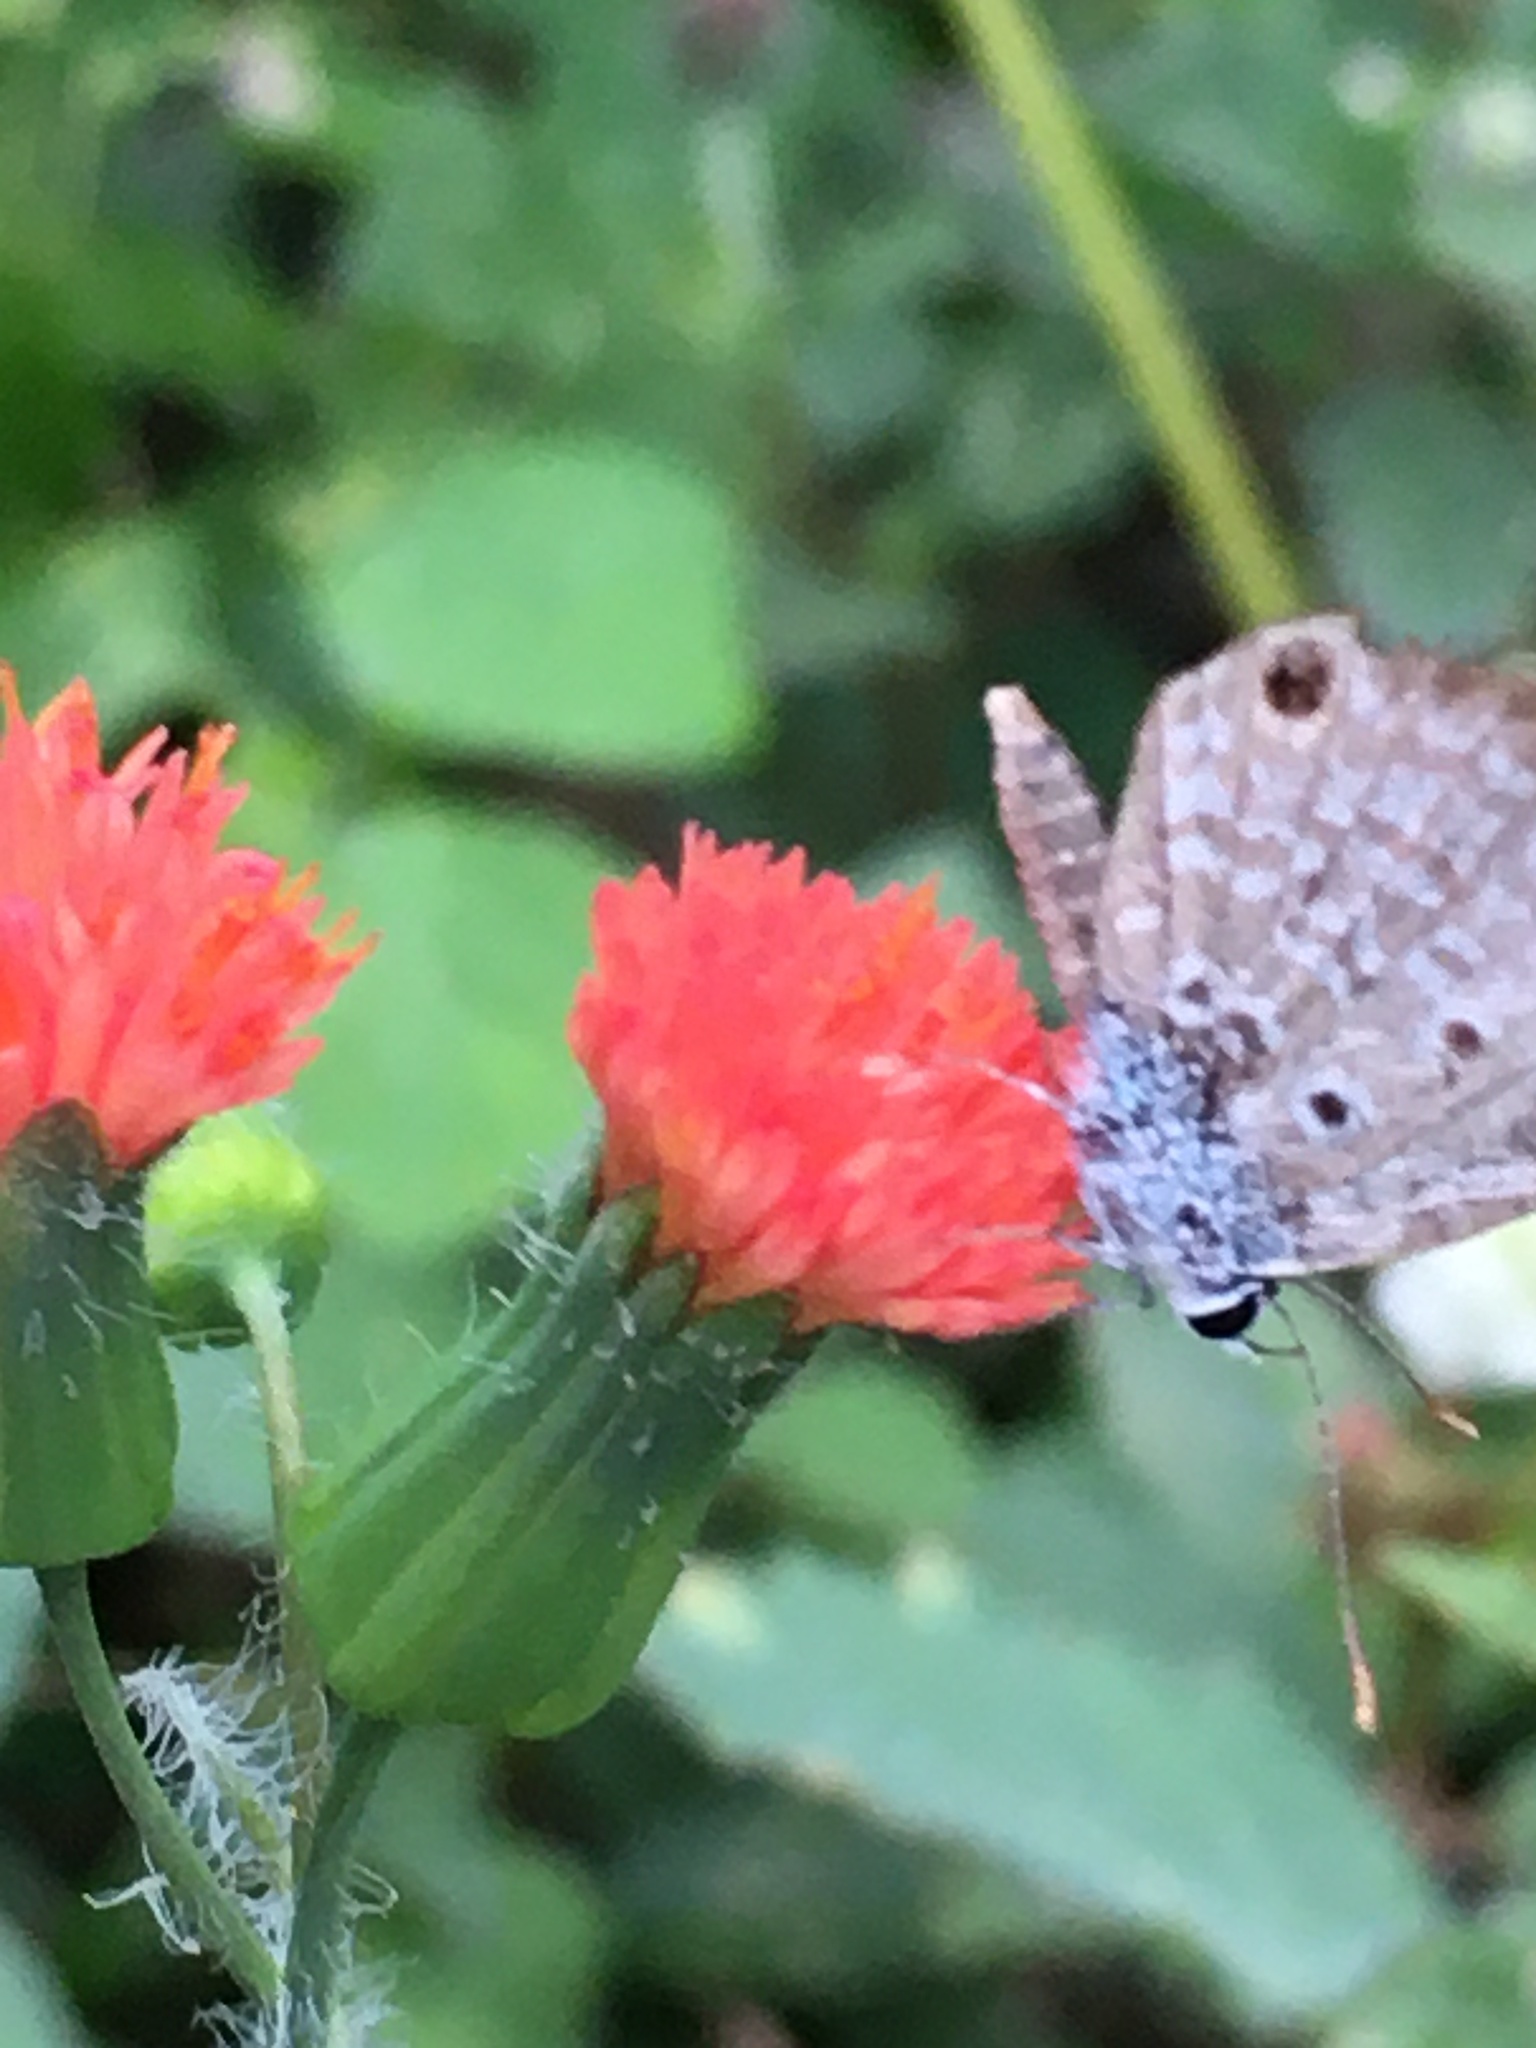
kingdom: Animalia
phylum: Arthropoda
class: Insecta
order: Lepidoptera
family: Lycaenidae
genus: Hemiargus
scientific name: Hemiargus hanno
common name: Common blue
